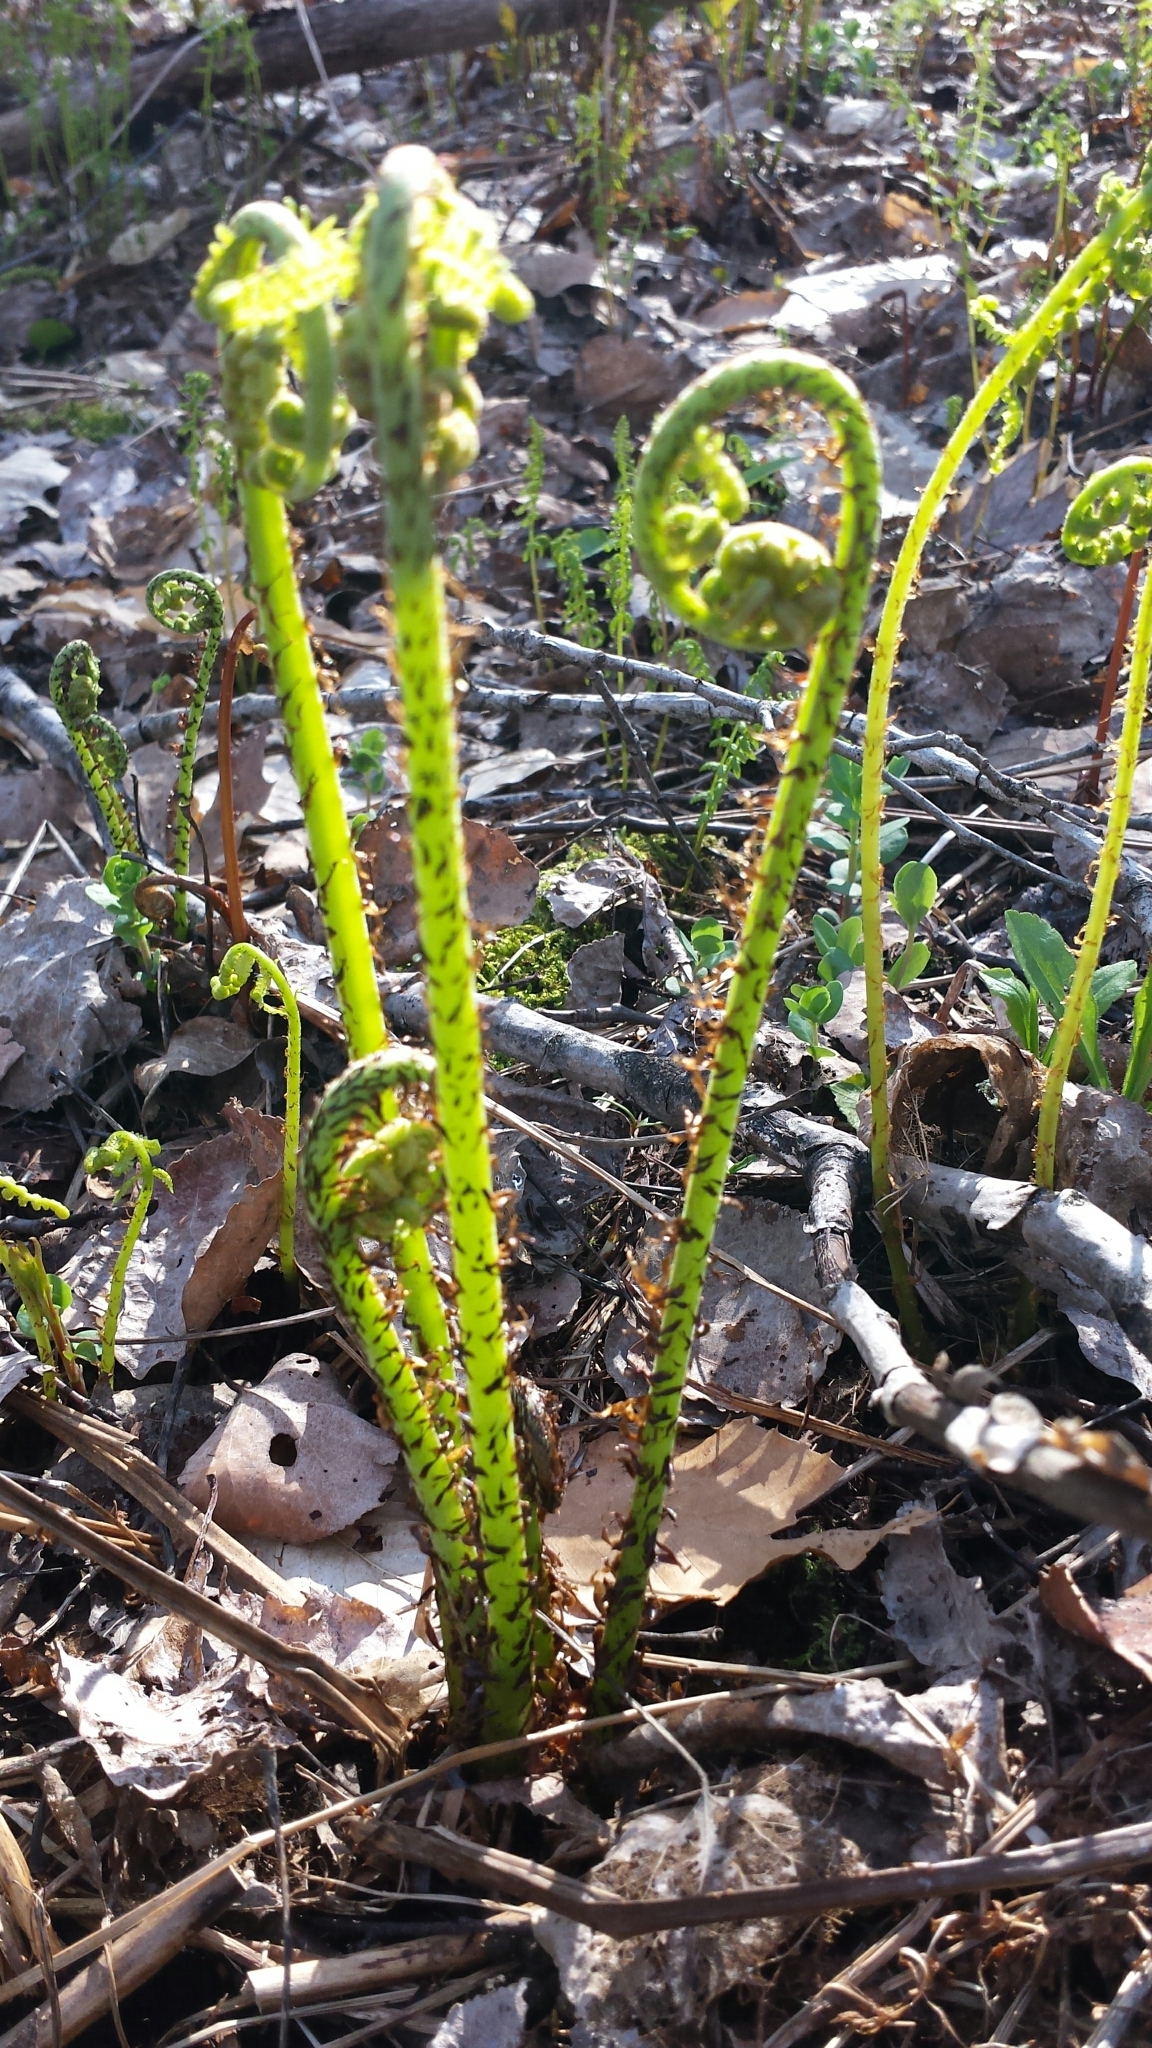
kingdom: Plantae
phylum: Tracheophyta
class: Polypodiopsida
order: Polypodiales
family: Athyriaceae
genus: Athyrium
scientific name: Athyrium angustum
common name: Northern lady fern
